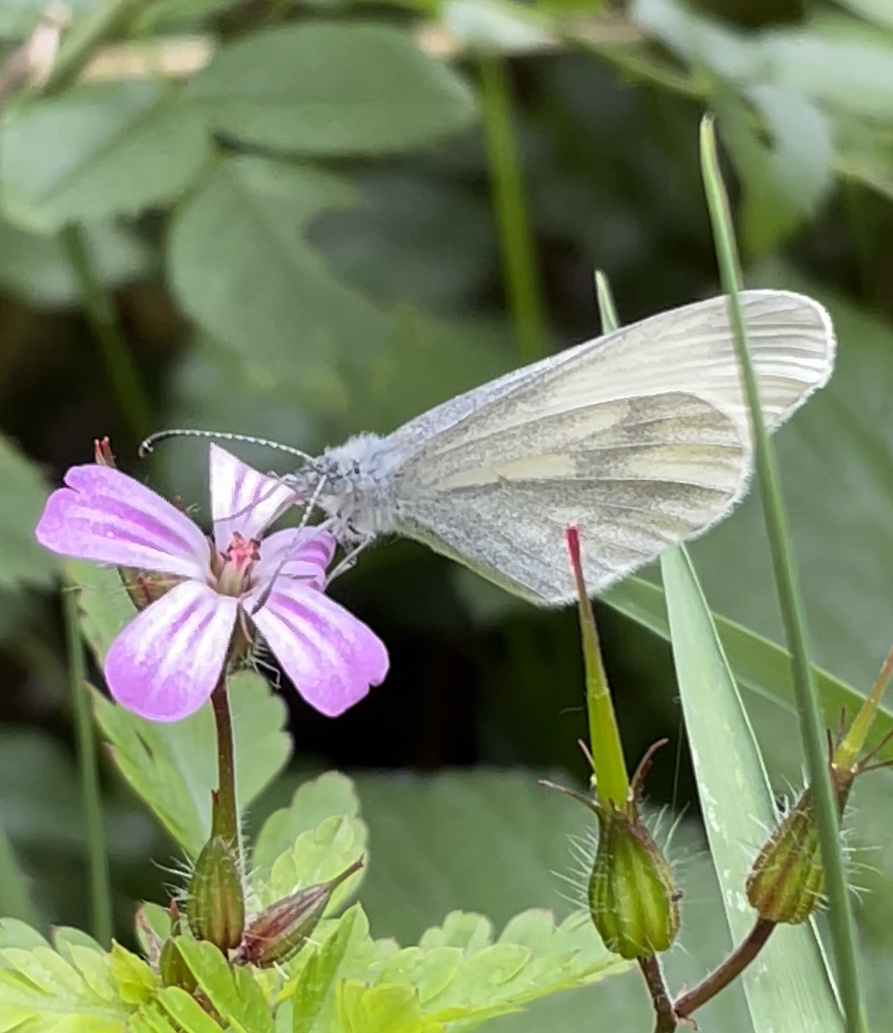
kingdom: Animalia
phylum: Arthropoda
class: Insecta
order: Lepidoptera
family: Pieridae
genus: Leptidea
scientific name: Leptidea sinapis
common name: Wood white
